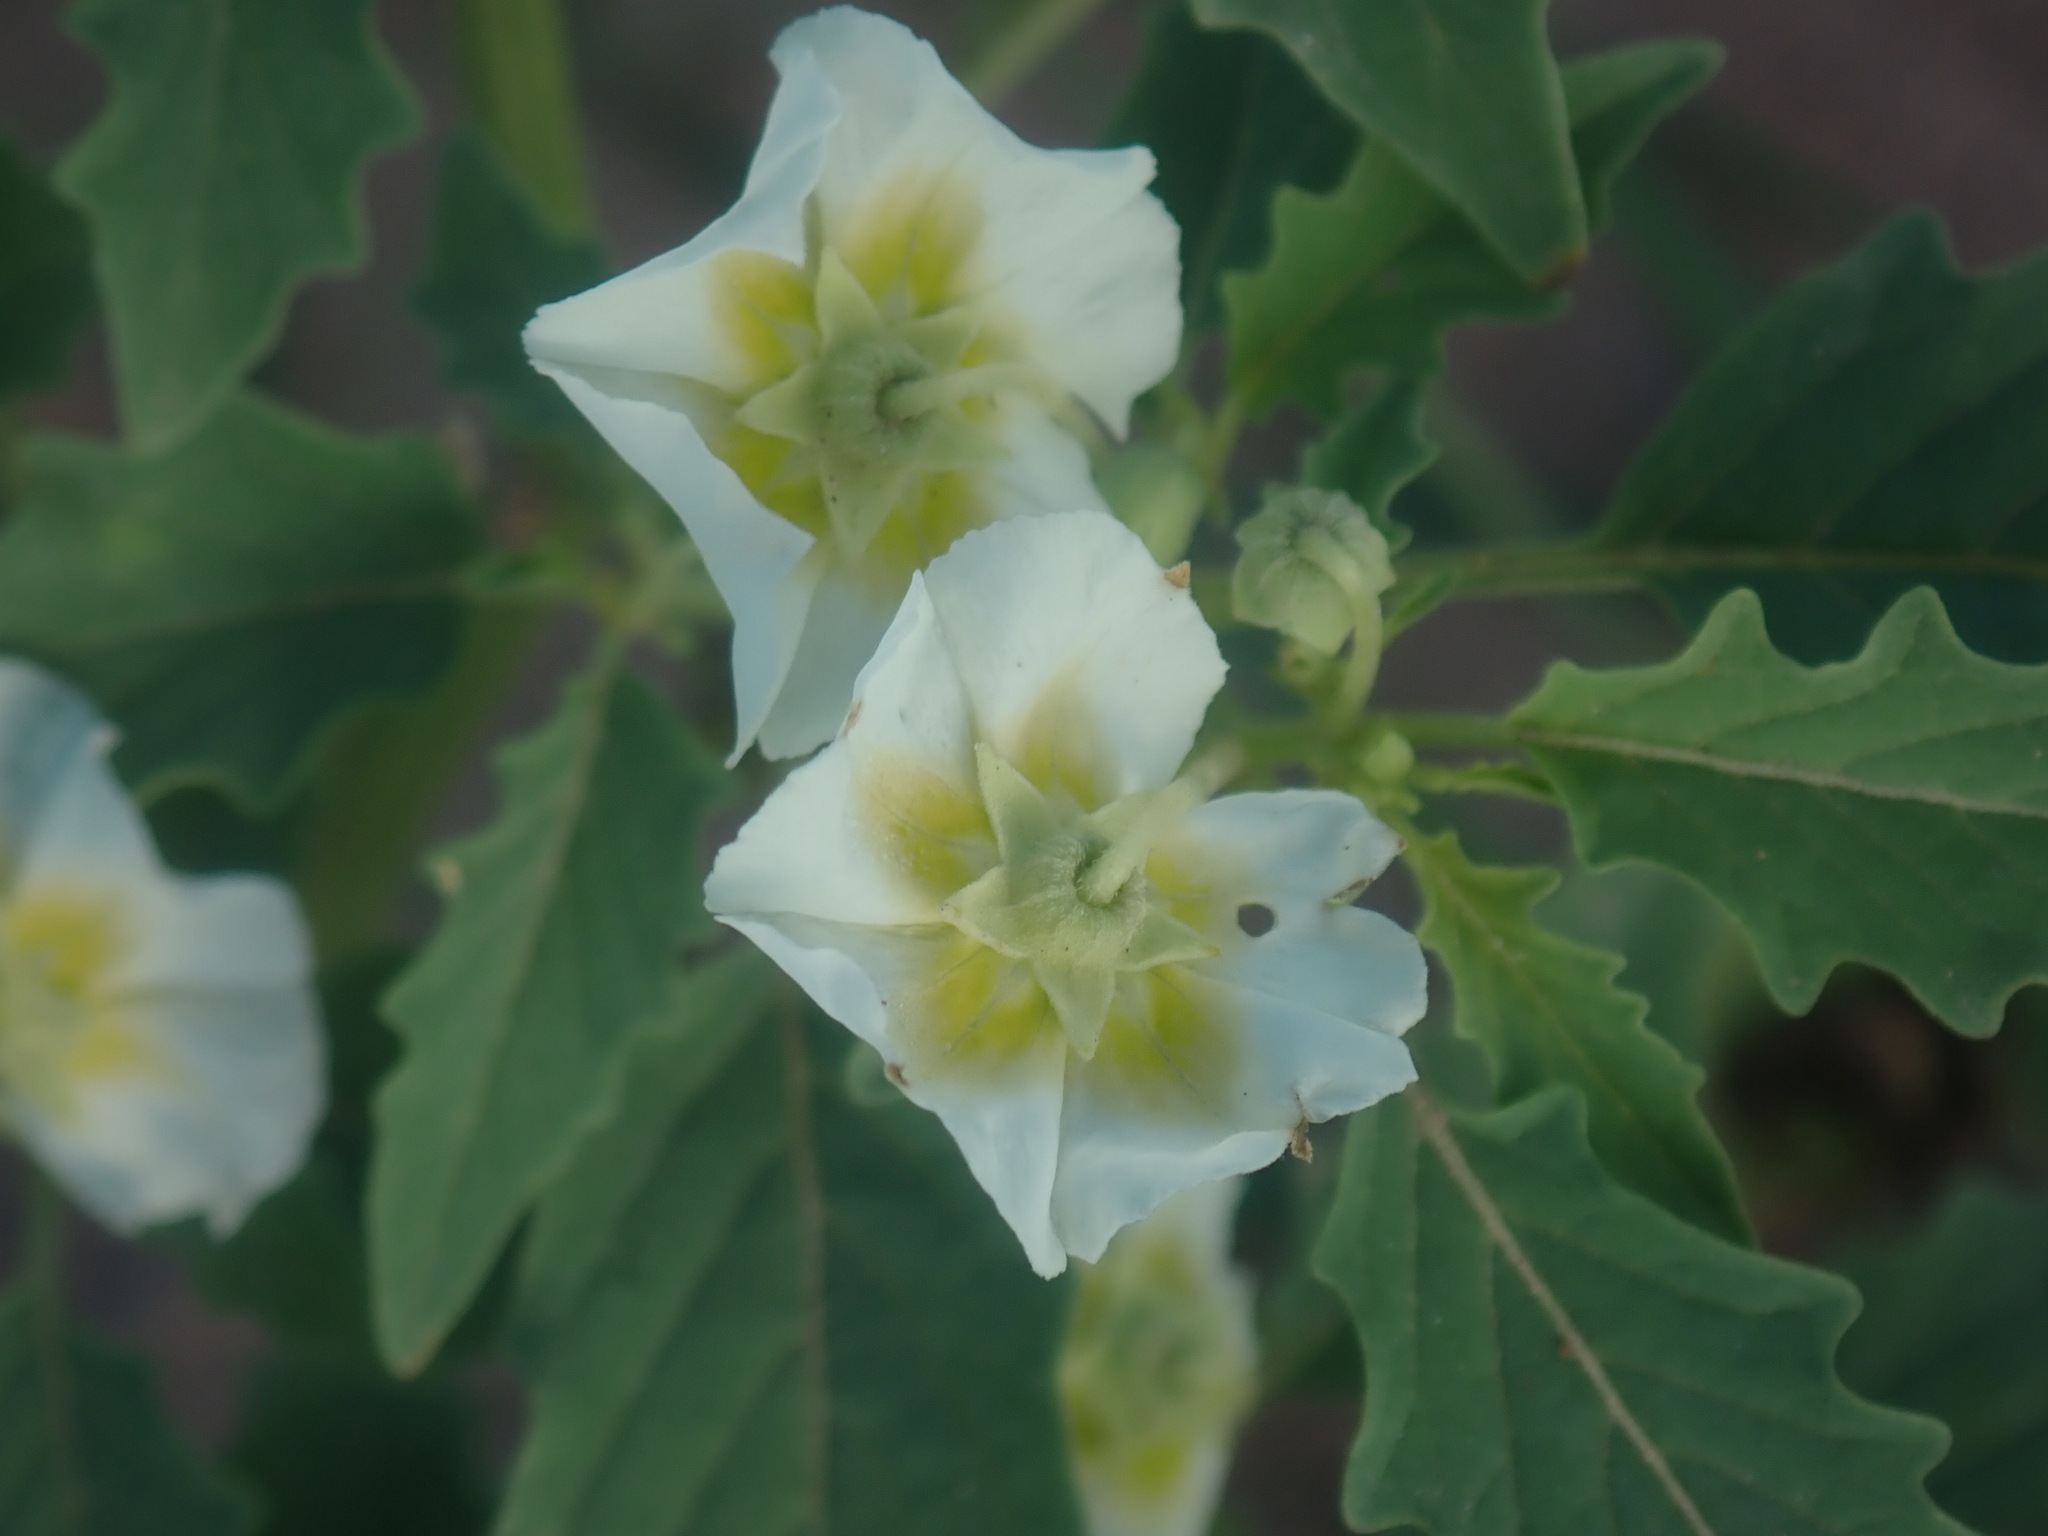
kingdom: Plantae
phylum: Tracheophyta
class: Magnoliopsida
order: Solanales
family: Solanaceae
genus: Physalis
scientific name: Physalis acutifolia
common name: Wright's ground-cherry
